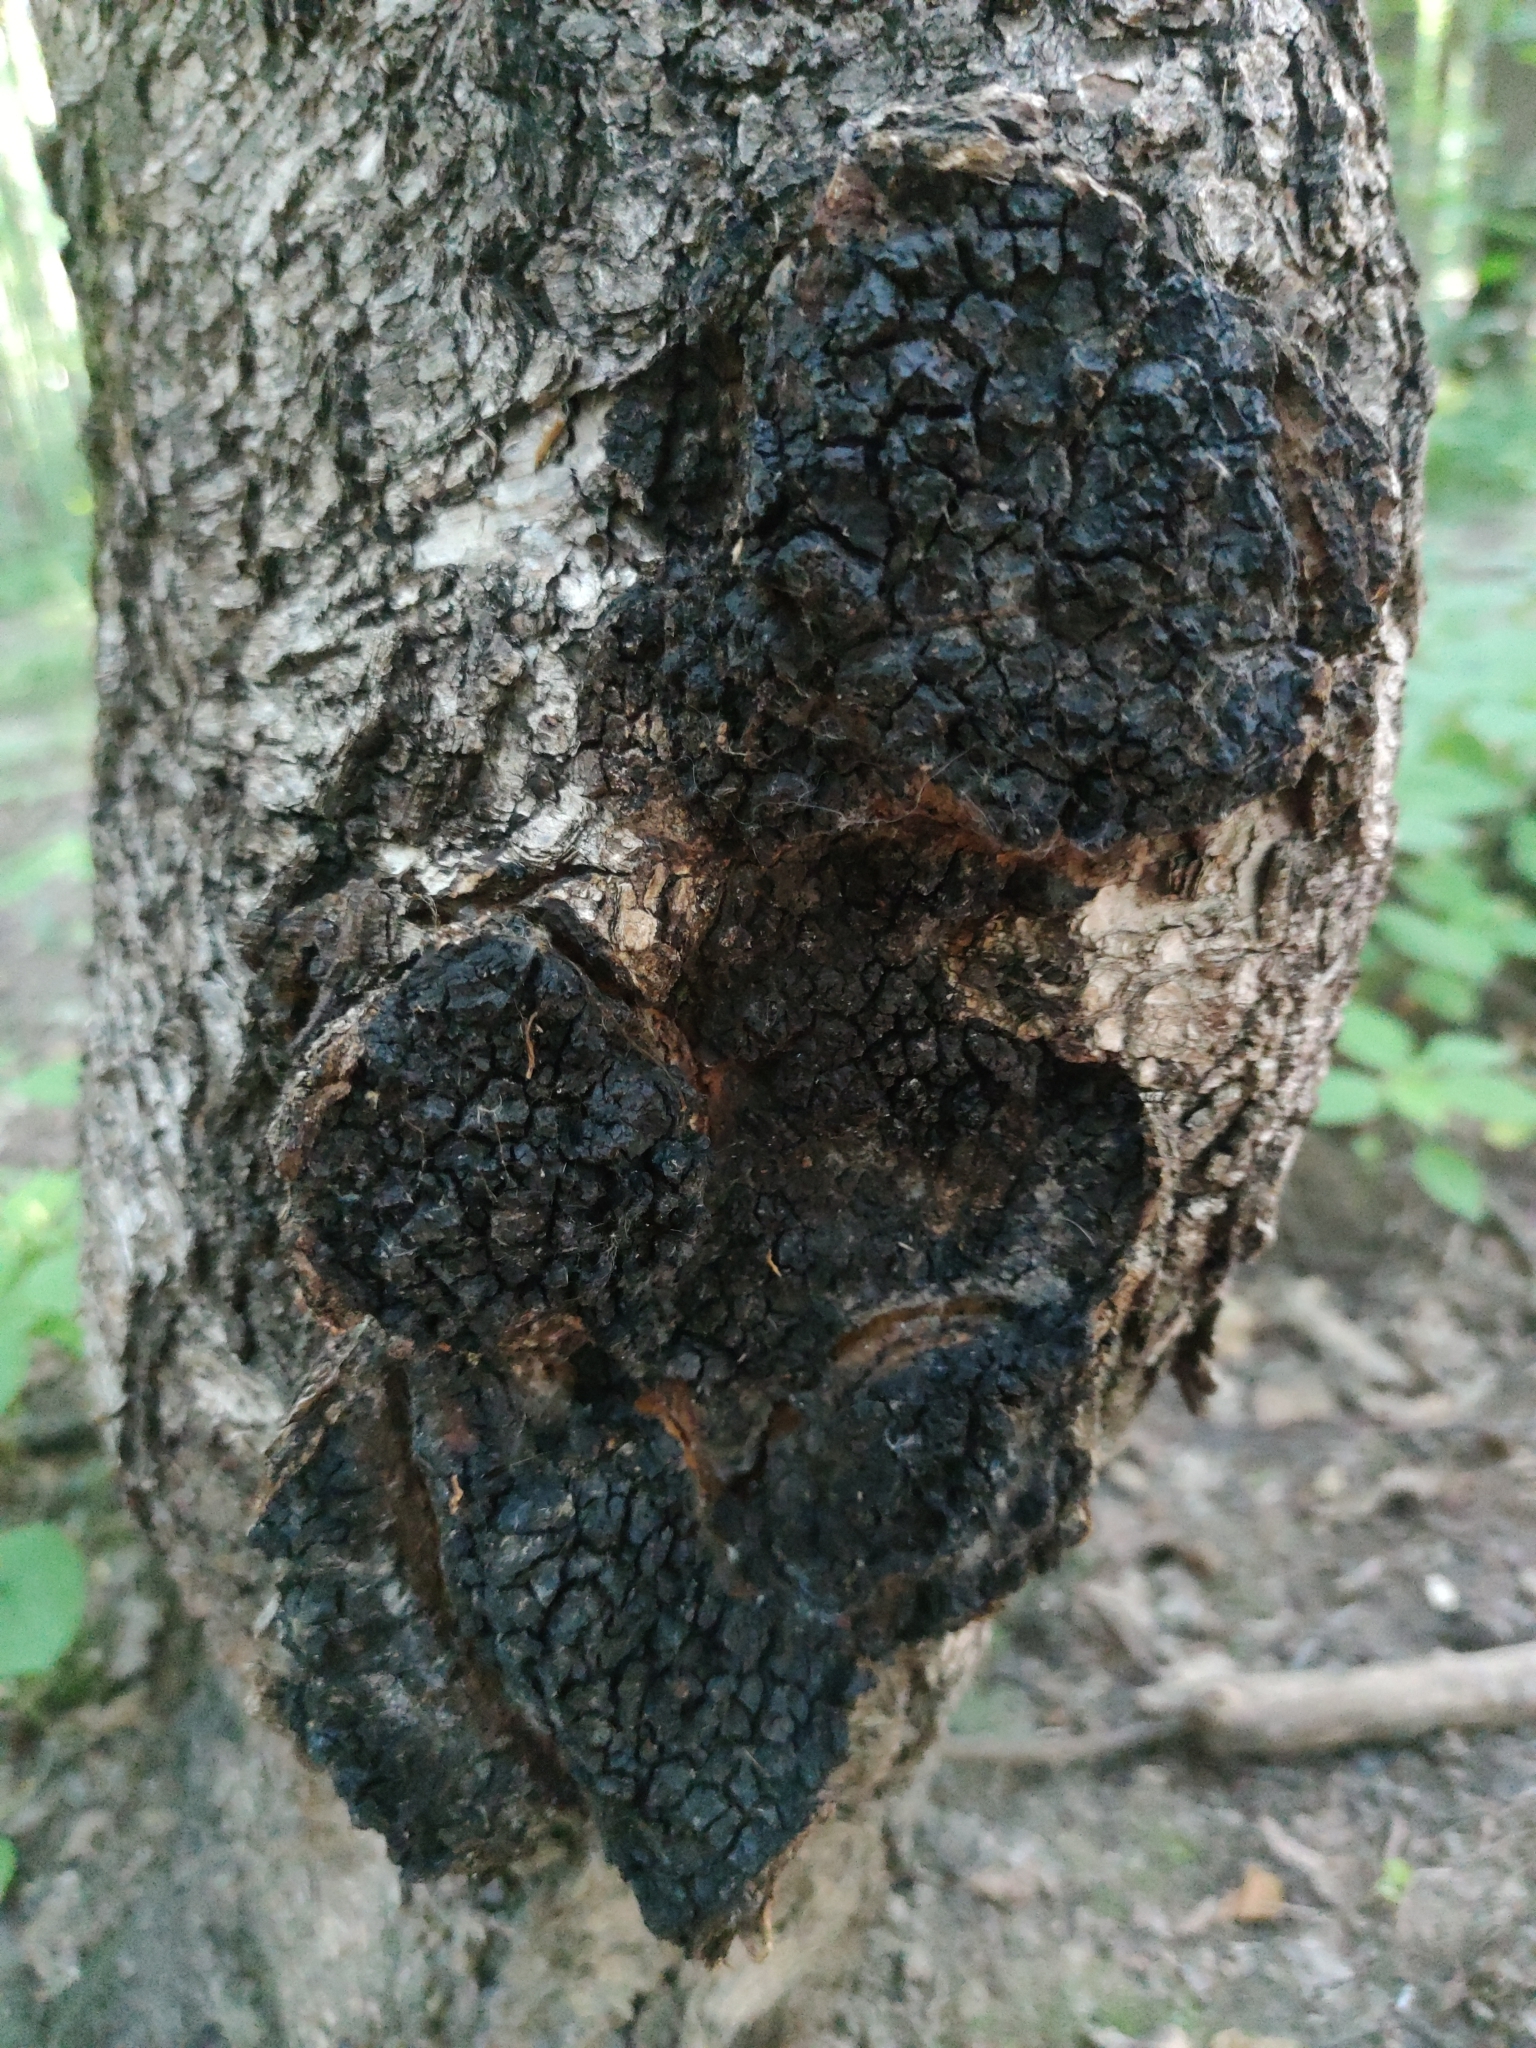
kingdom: Fungi
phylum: Basidiomycota
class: Agaricomycetes
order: Hymenochaetales
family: Hymenochaetaceae
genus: Inonotus
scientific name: Inonotus obliquus
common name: Chaga
